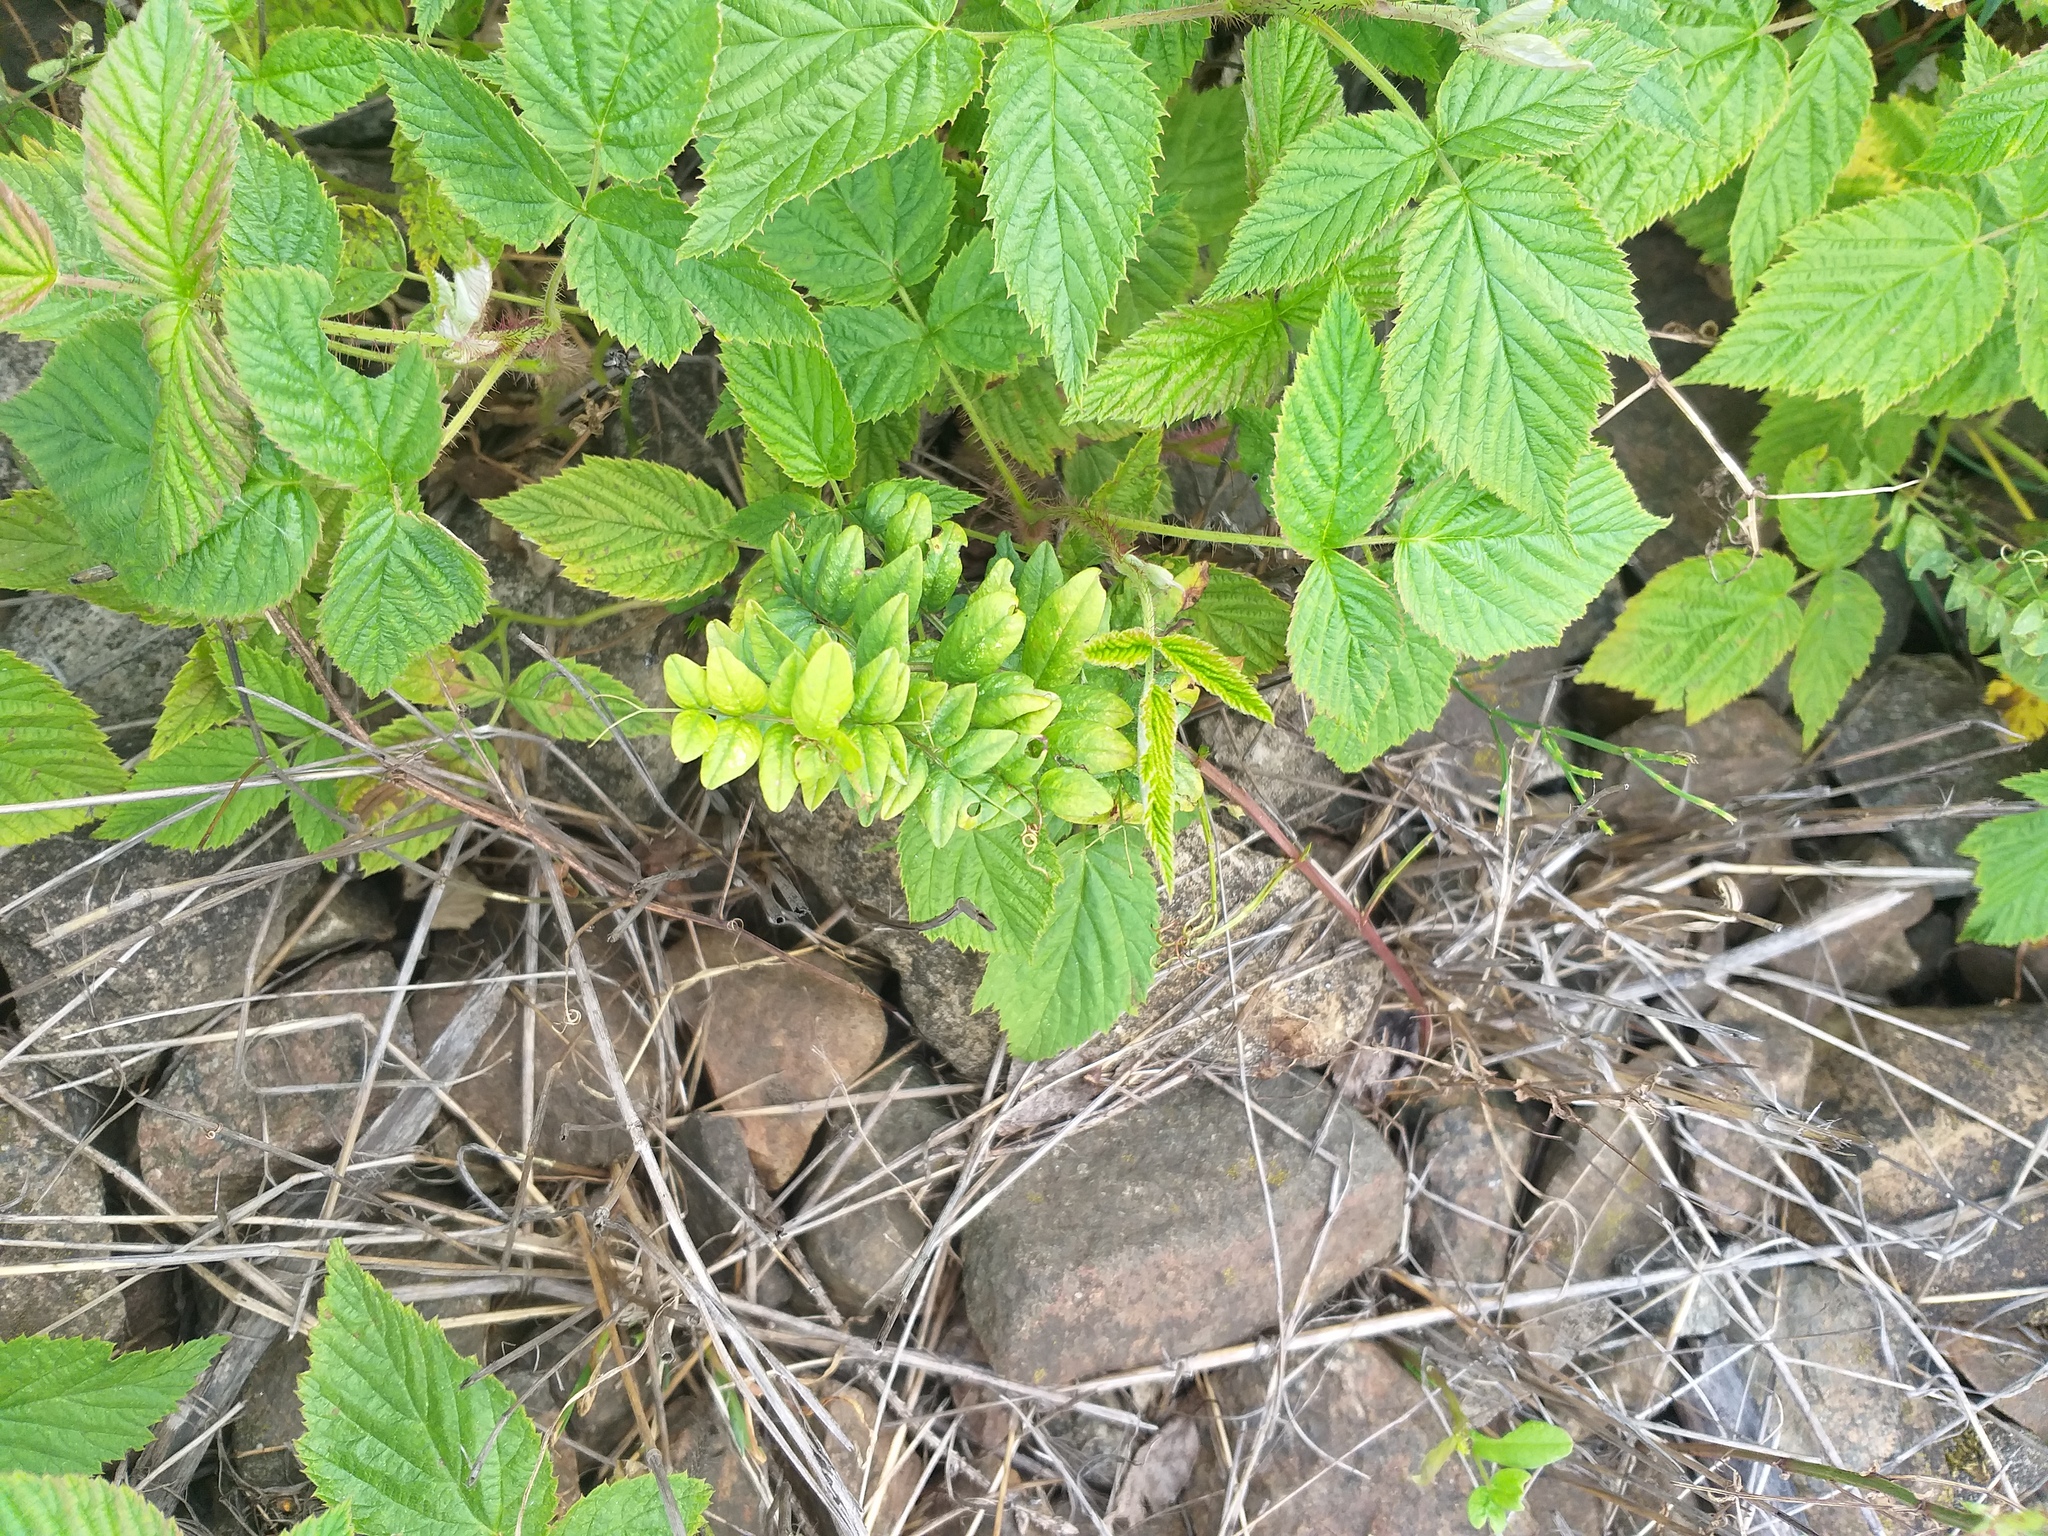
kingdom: Plantae
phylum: Tracheophyta
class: Magnoliopsida
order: Fabales
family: Fabaceae
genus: Vicia
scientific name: Vicia sepium
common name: Bush vetch
